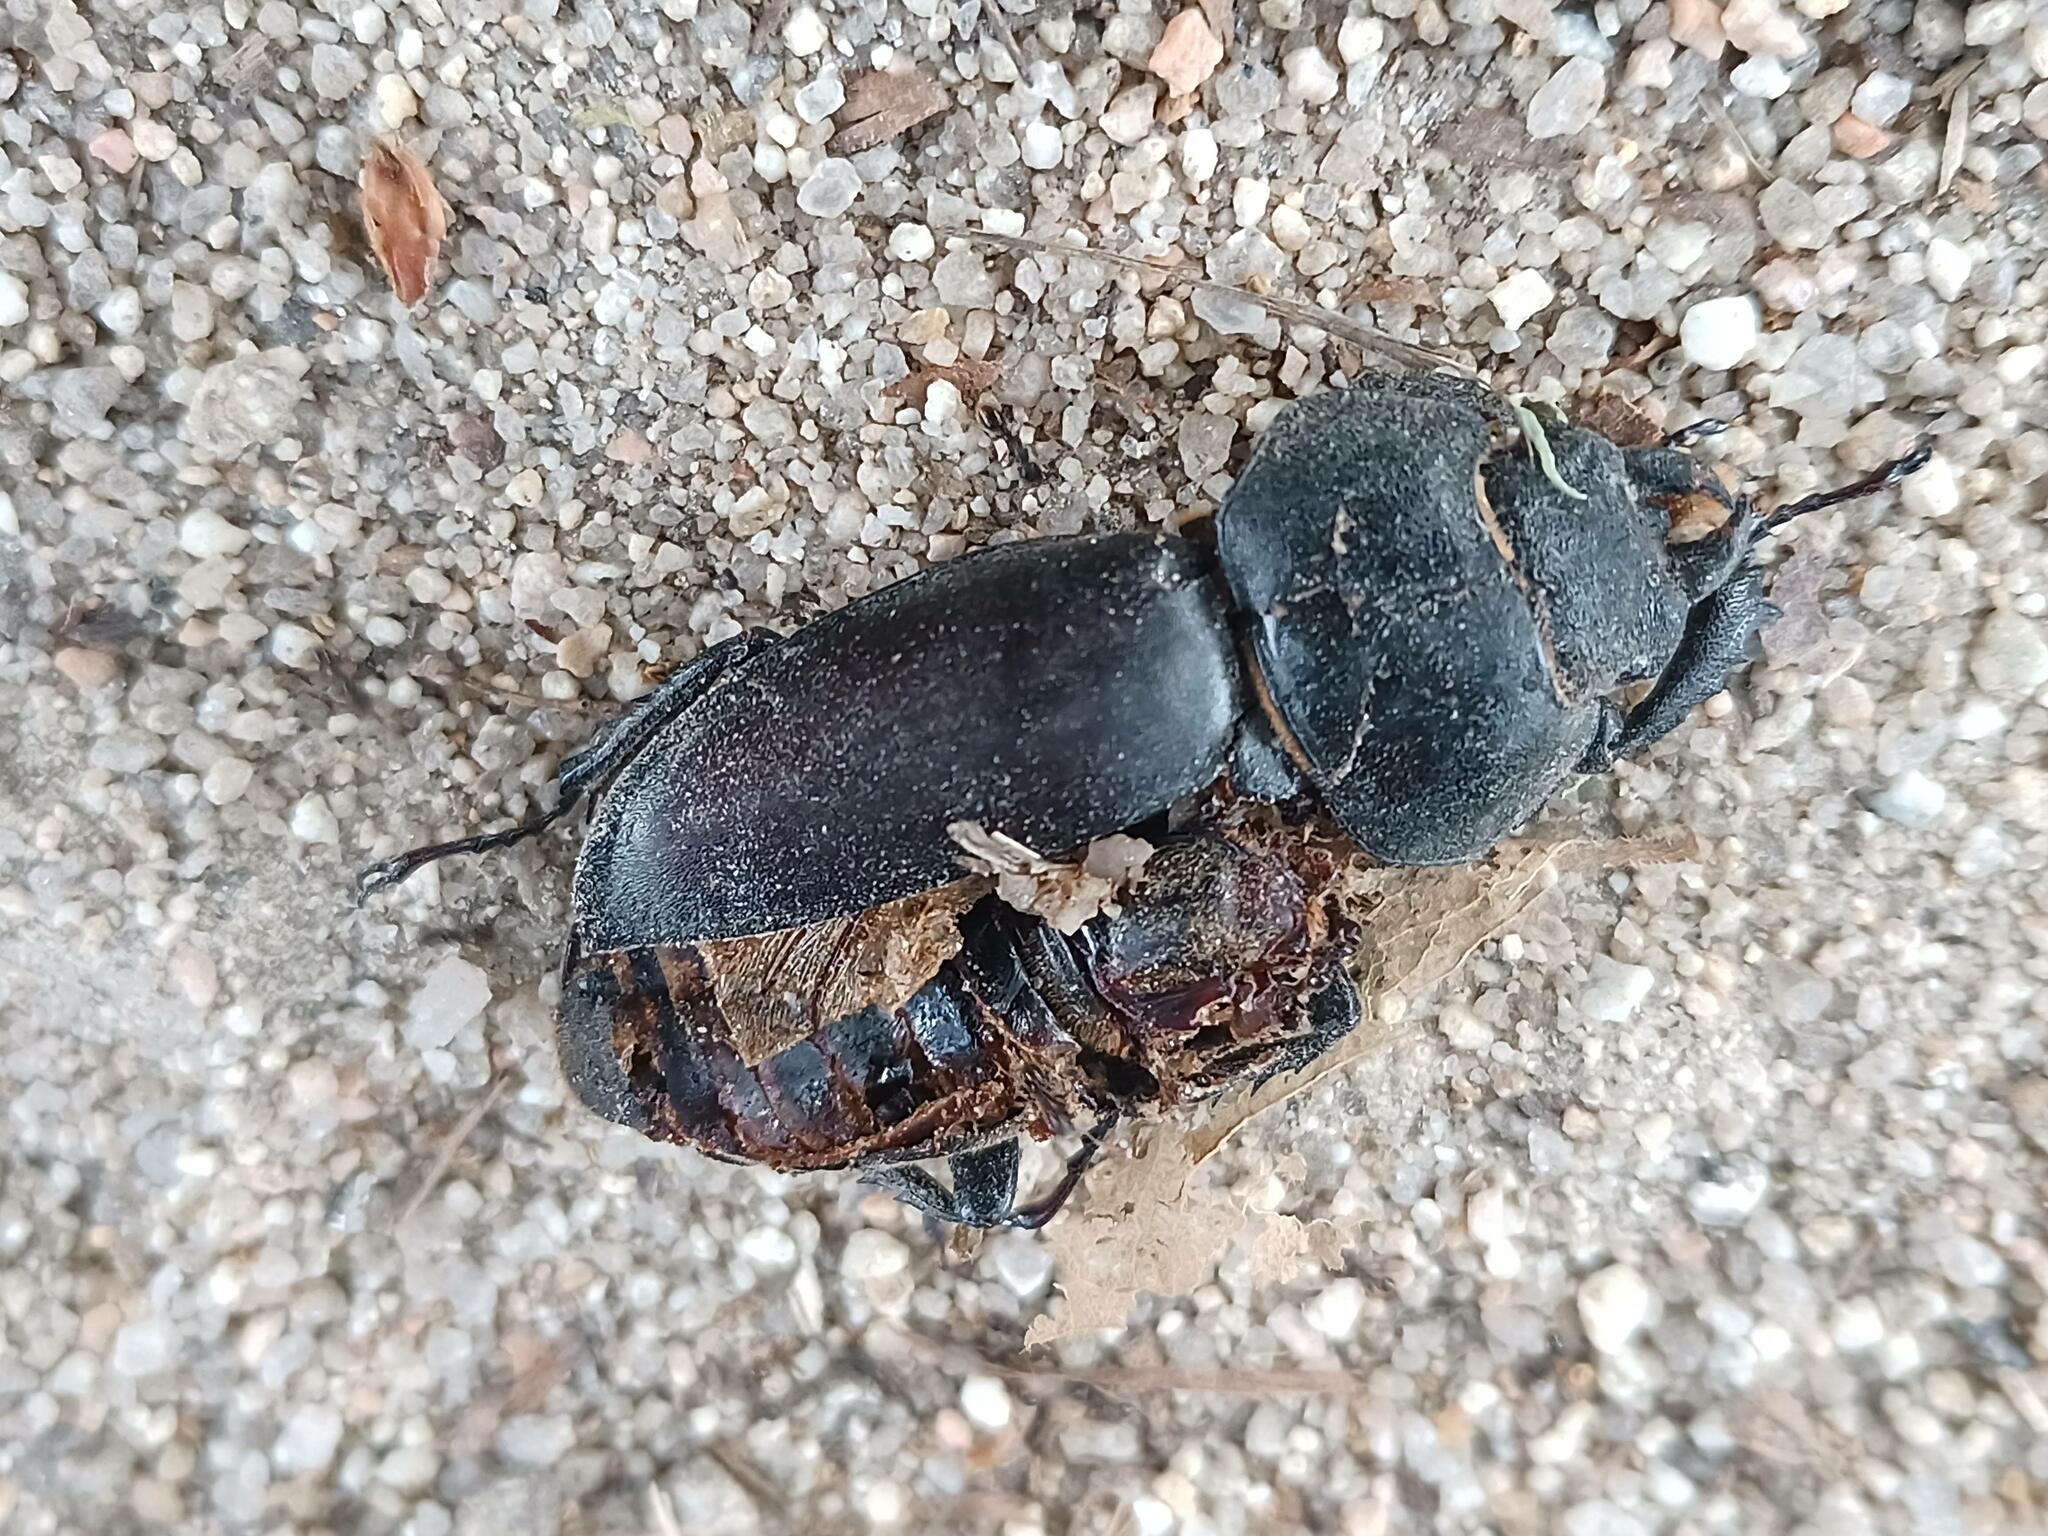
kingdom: Animalia
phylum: Arthropoda
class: Insecta
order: Coleoptera
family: Lucanidae
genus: Lucanus
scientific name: Lucanus cervus
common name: Stag beetle
